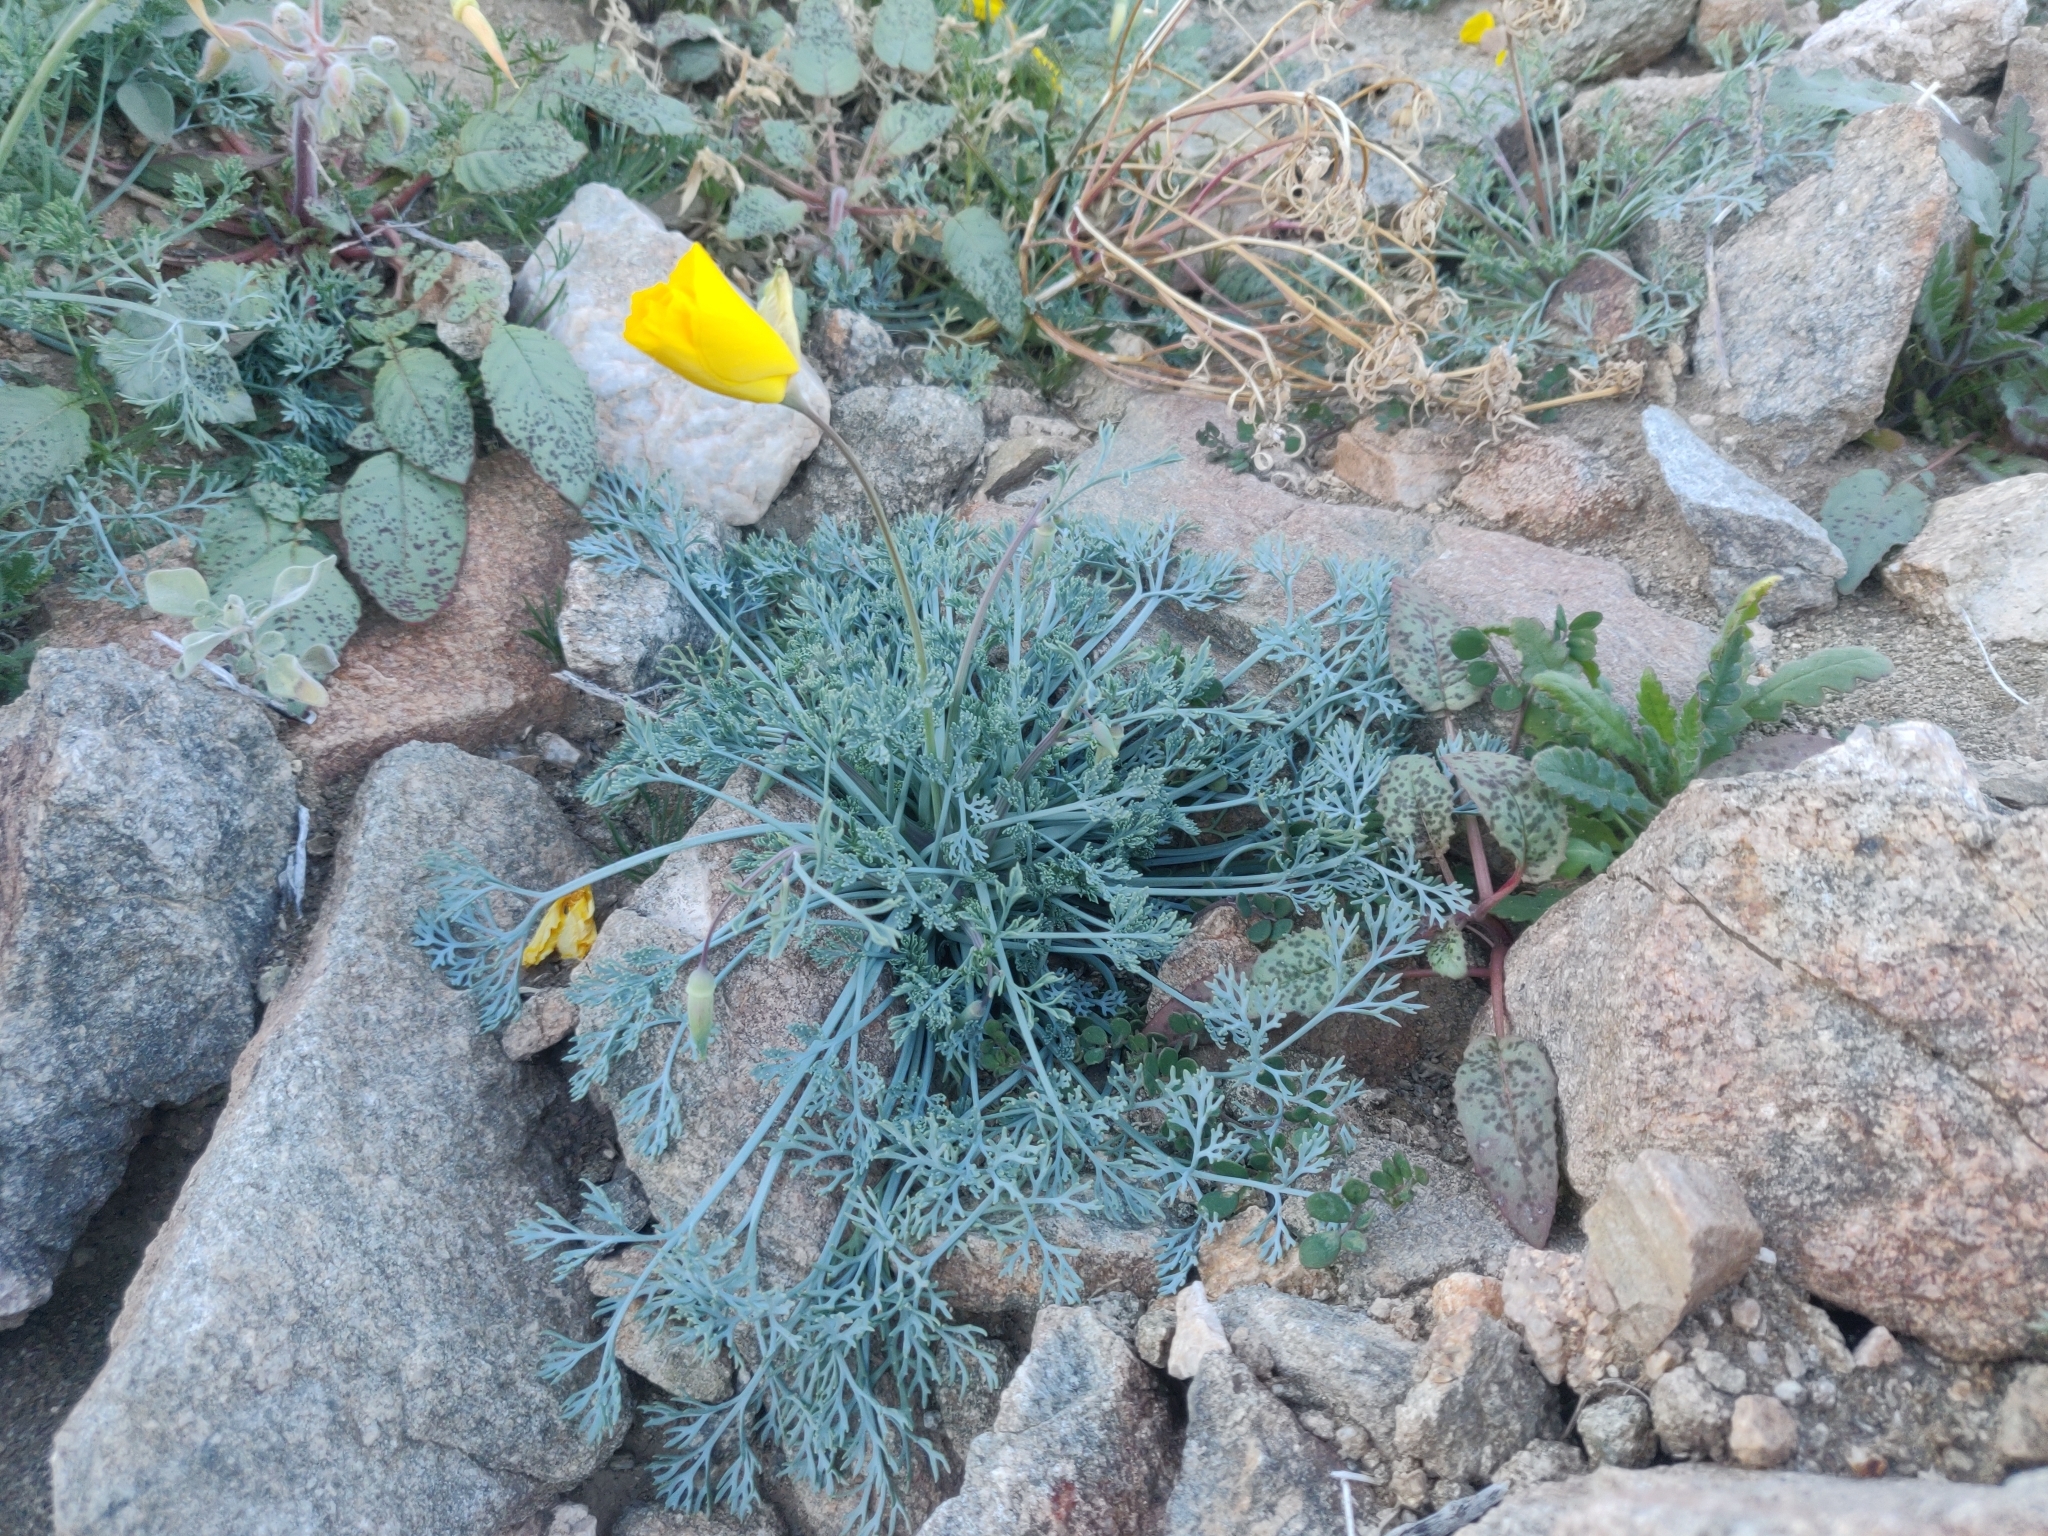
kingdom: Plantae
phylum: Tracheophyta
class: Magnoliopsida
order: Ranunculales
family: Papaveraceae
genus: Eschscholzia
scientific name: Eschscholzia papastillii
